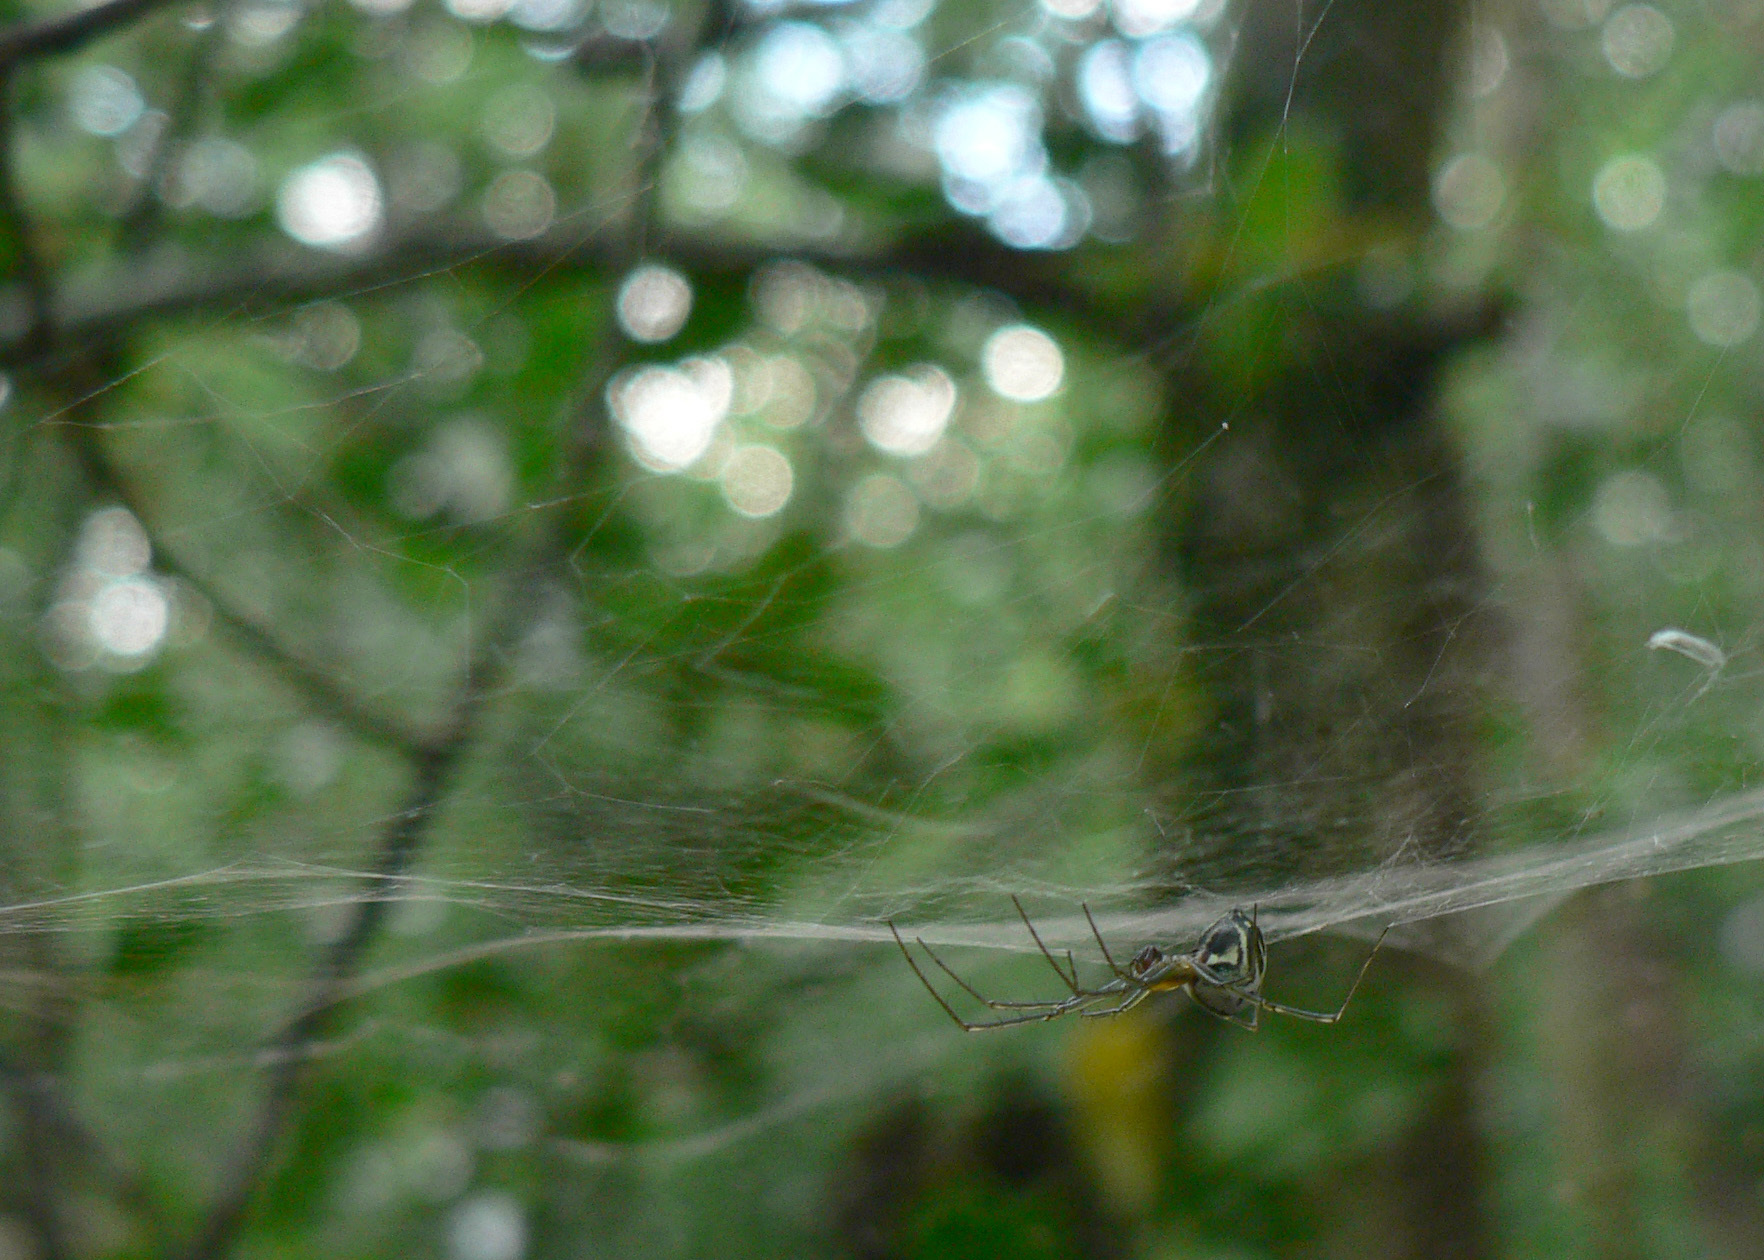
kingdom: Animalia
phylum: Arthropoda
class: Arachnida
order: Araneae
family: Linyphiidae
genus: Neriene
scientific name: Neriene emphana
